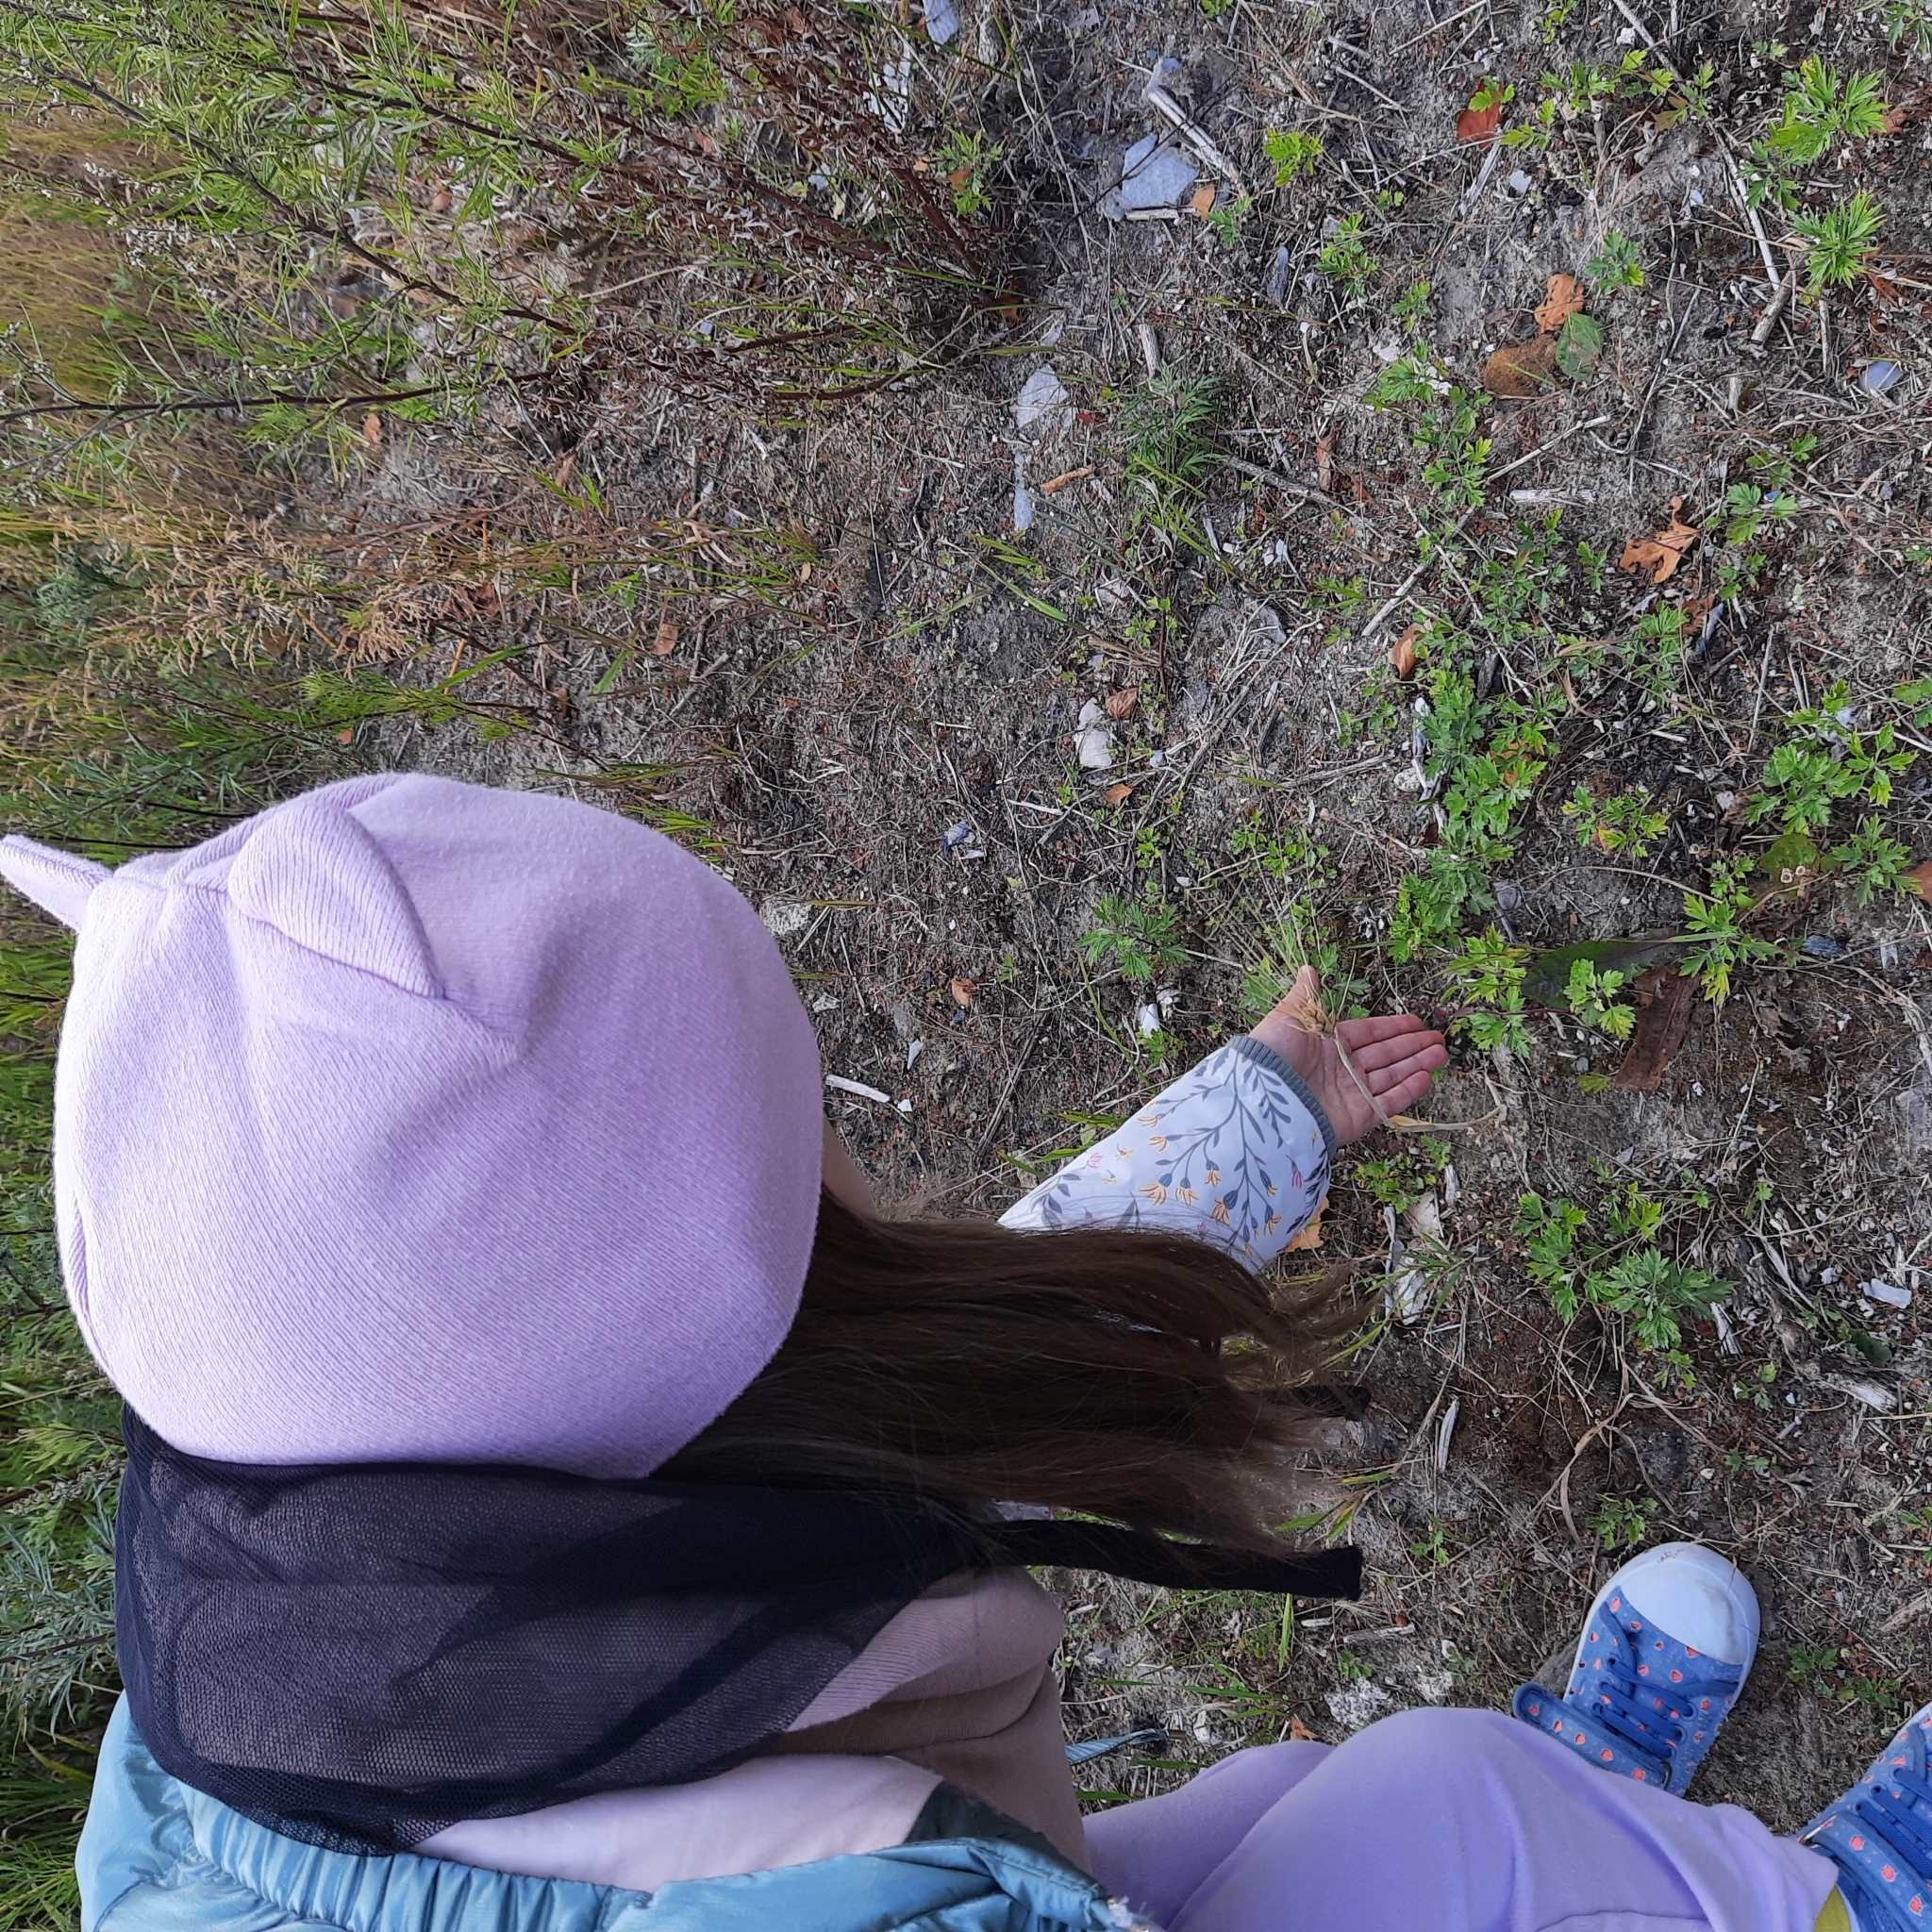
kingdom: Plantae
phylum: Tracheophyta
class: Liliopsida
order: Poales
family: Poaceae
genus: Triticum
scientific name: Triticum aestivum
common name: Common wheat
